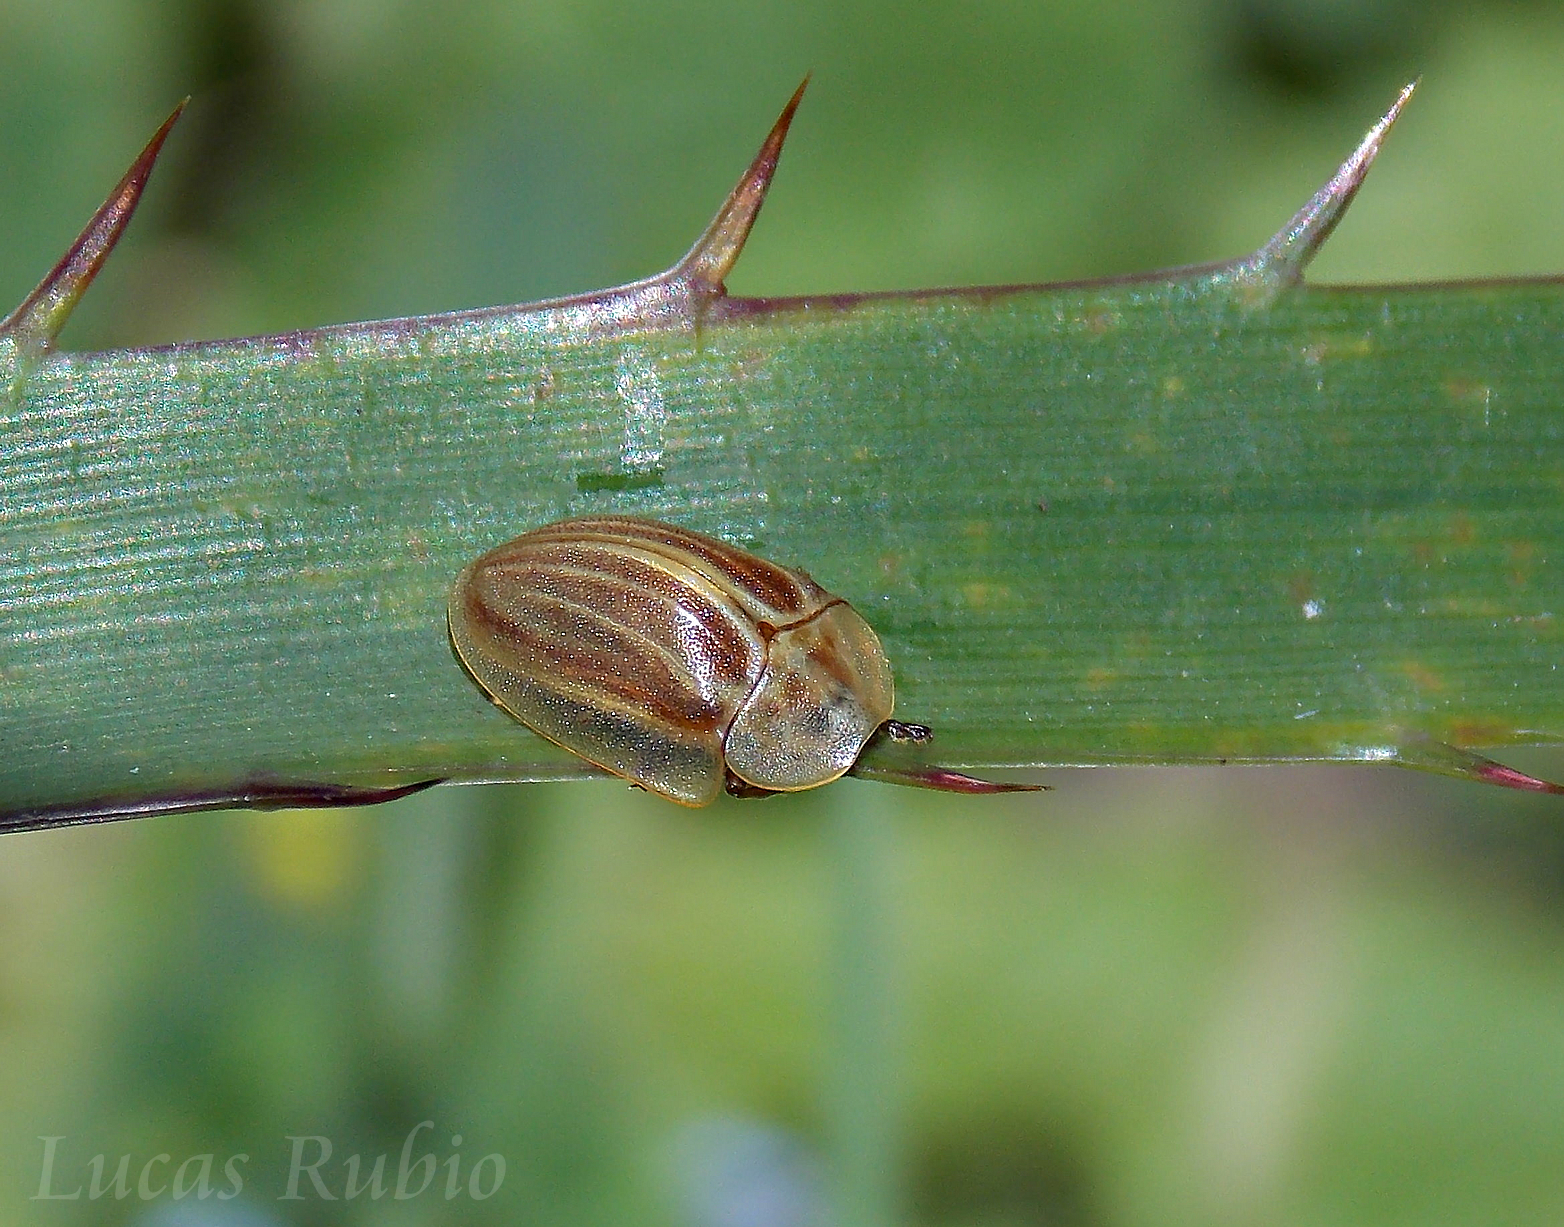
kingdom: Animalia
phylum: Arthropoda
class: Insecta
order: Coleoptera
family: Chrysomelidae
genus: Anacassis
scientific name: Anacassis fuscata
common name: Seepwillow flea beetle
